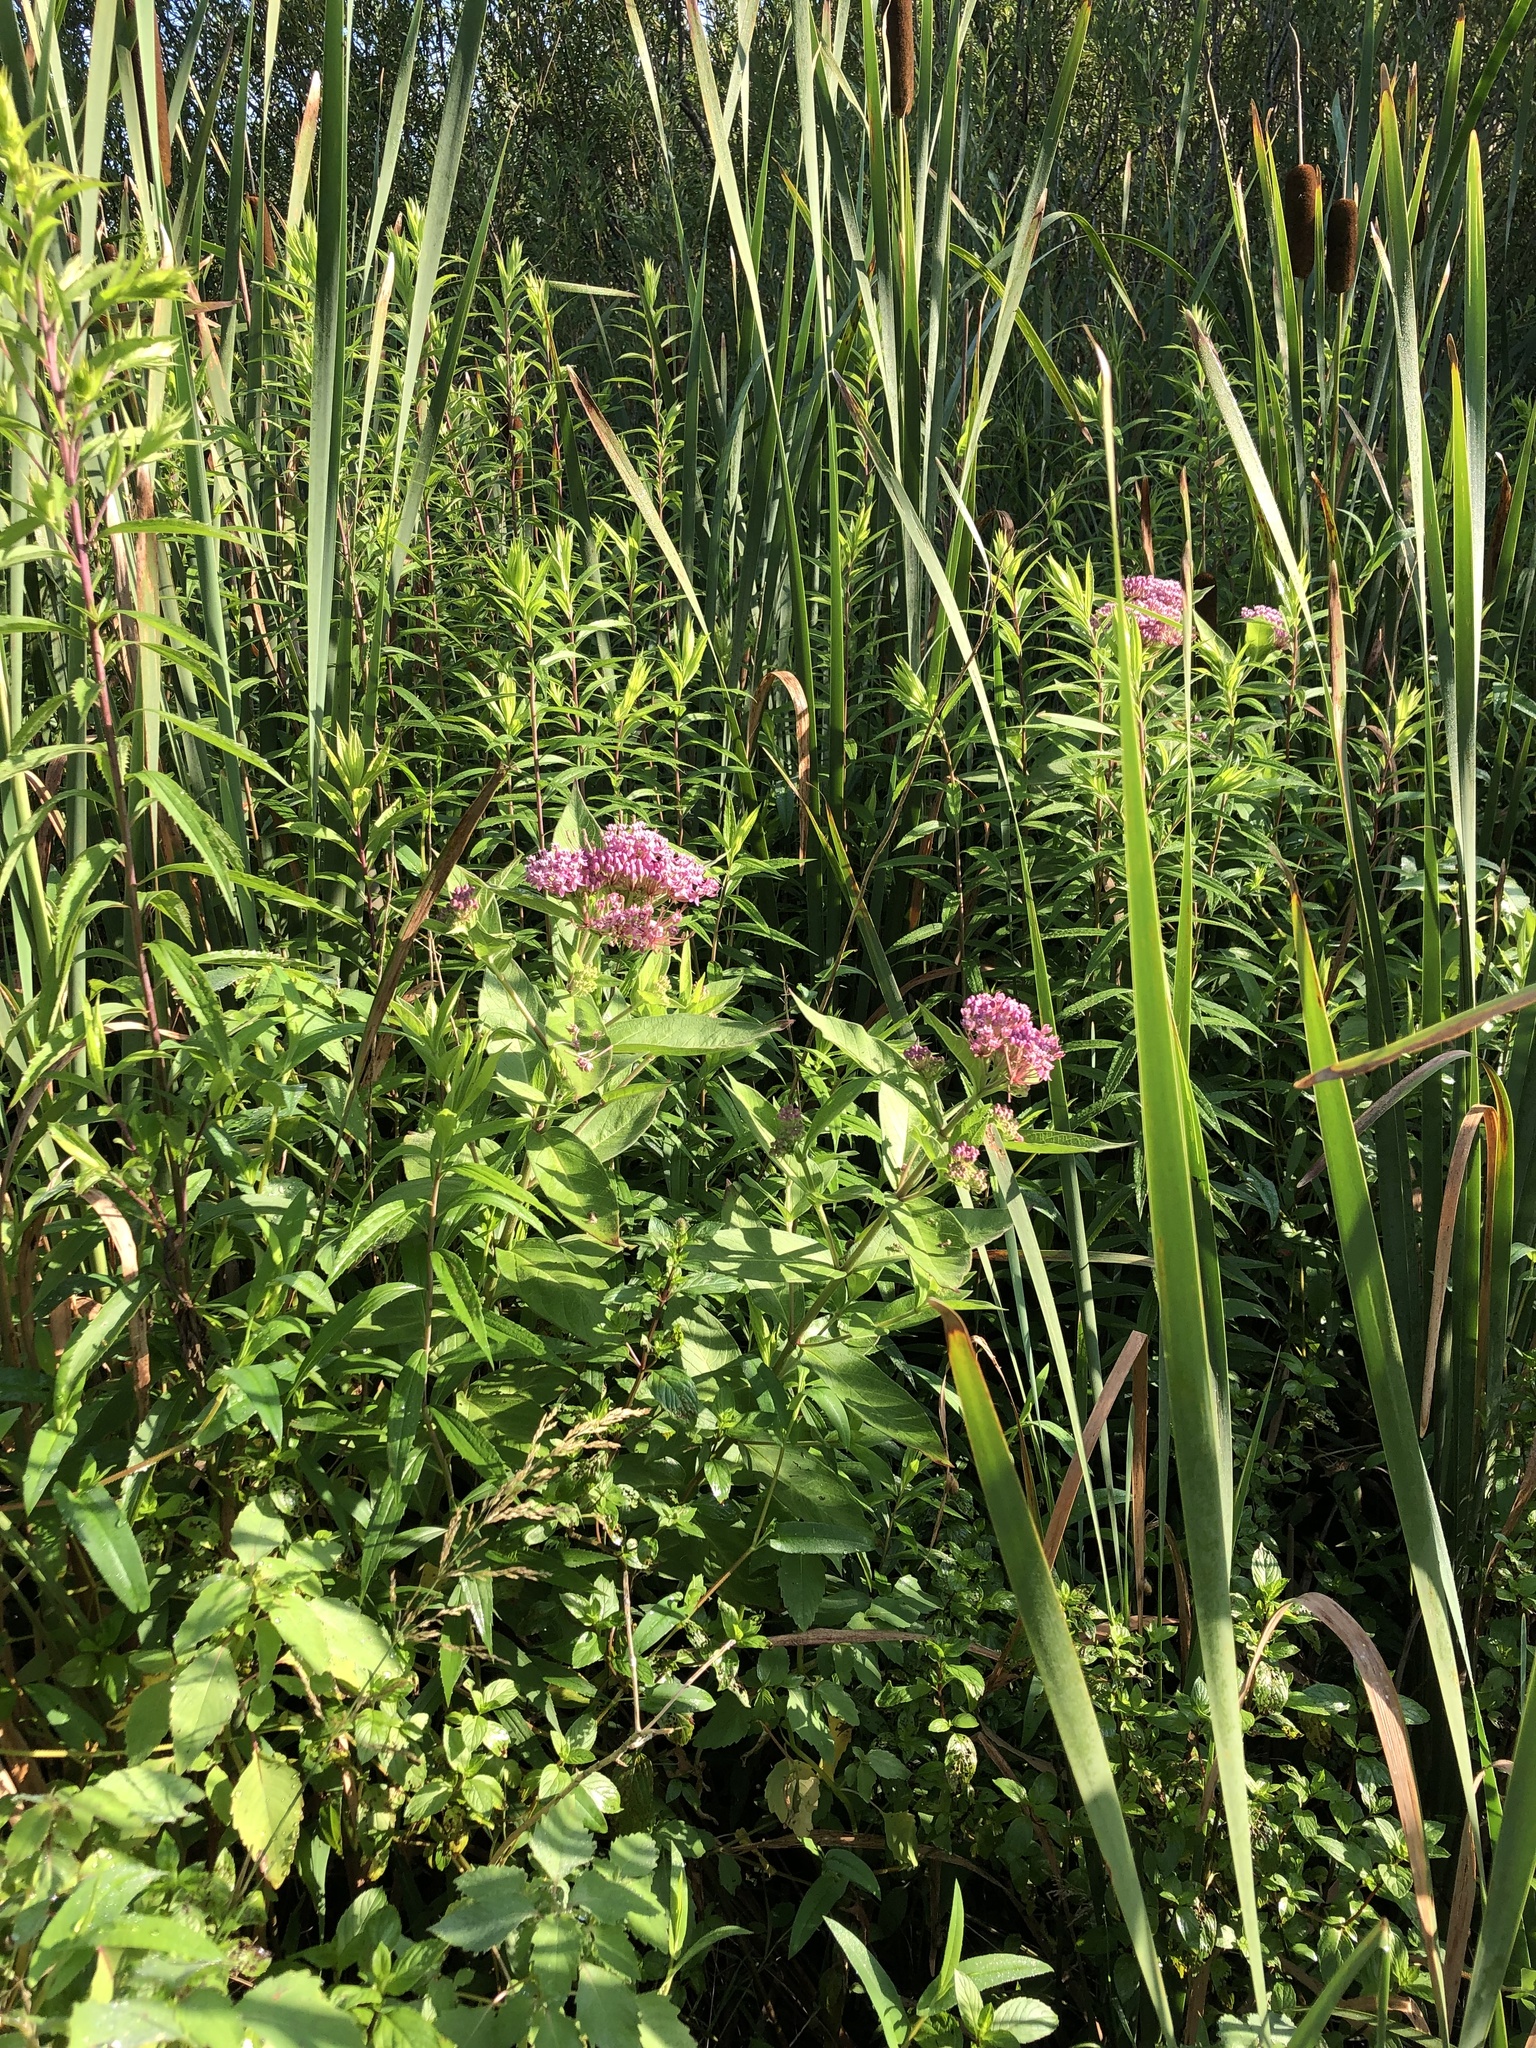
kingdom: Plantae
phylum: Tracheophyta
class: Magnoliopsida
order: Gentianales
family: Apocynaceae
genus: Asclepias
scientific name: Asclepias incarnata
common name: Swamp milkweed
